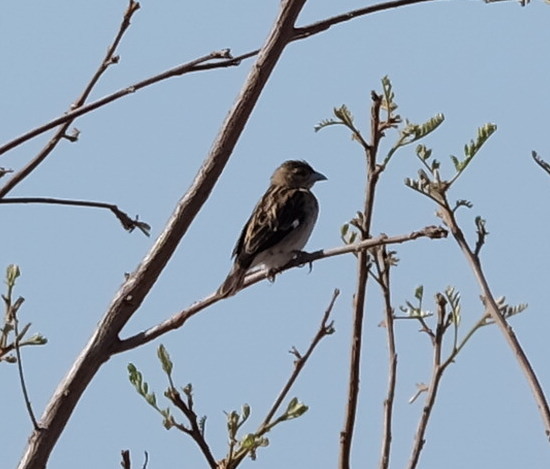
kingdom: Animalia
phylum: Chordata
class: Aves
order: Passeriformes
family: Ploceidae
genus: Euplectes
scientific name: Euplectes albonotatus
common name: White-winged widowbird
